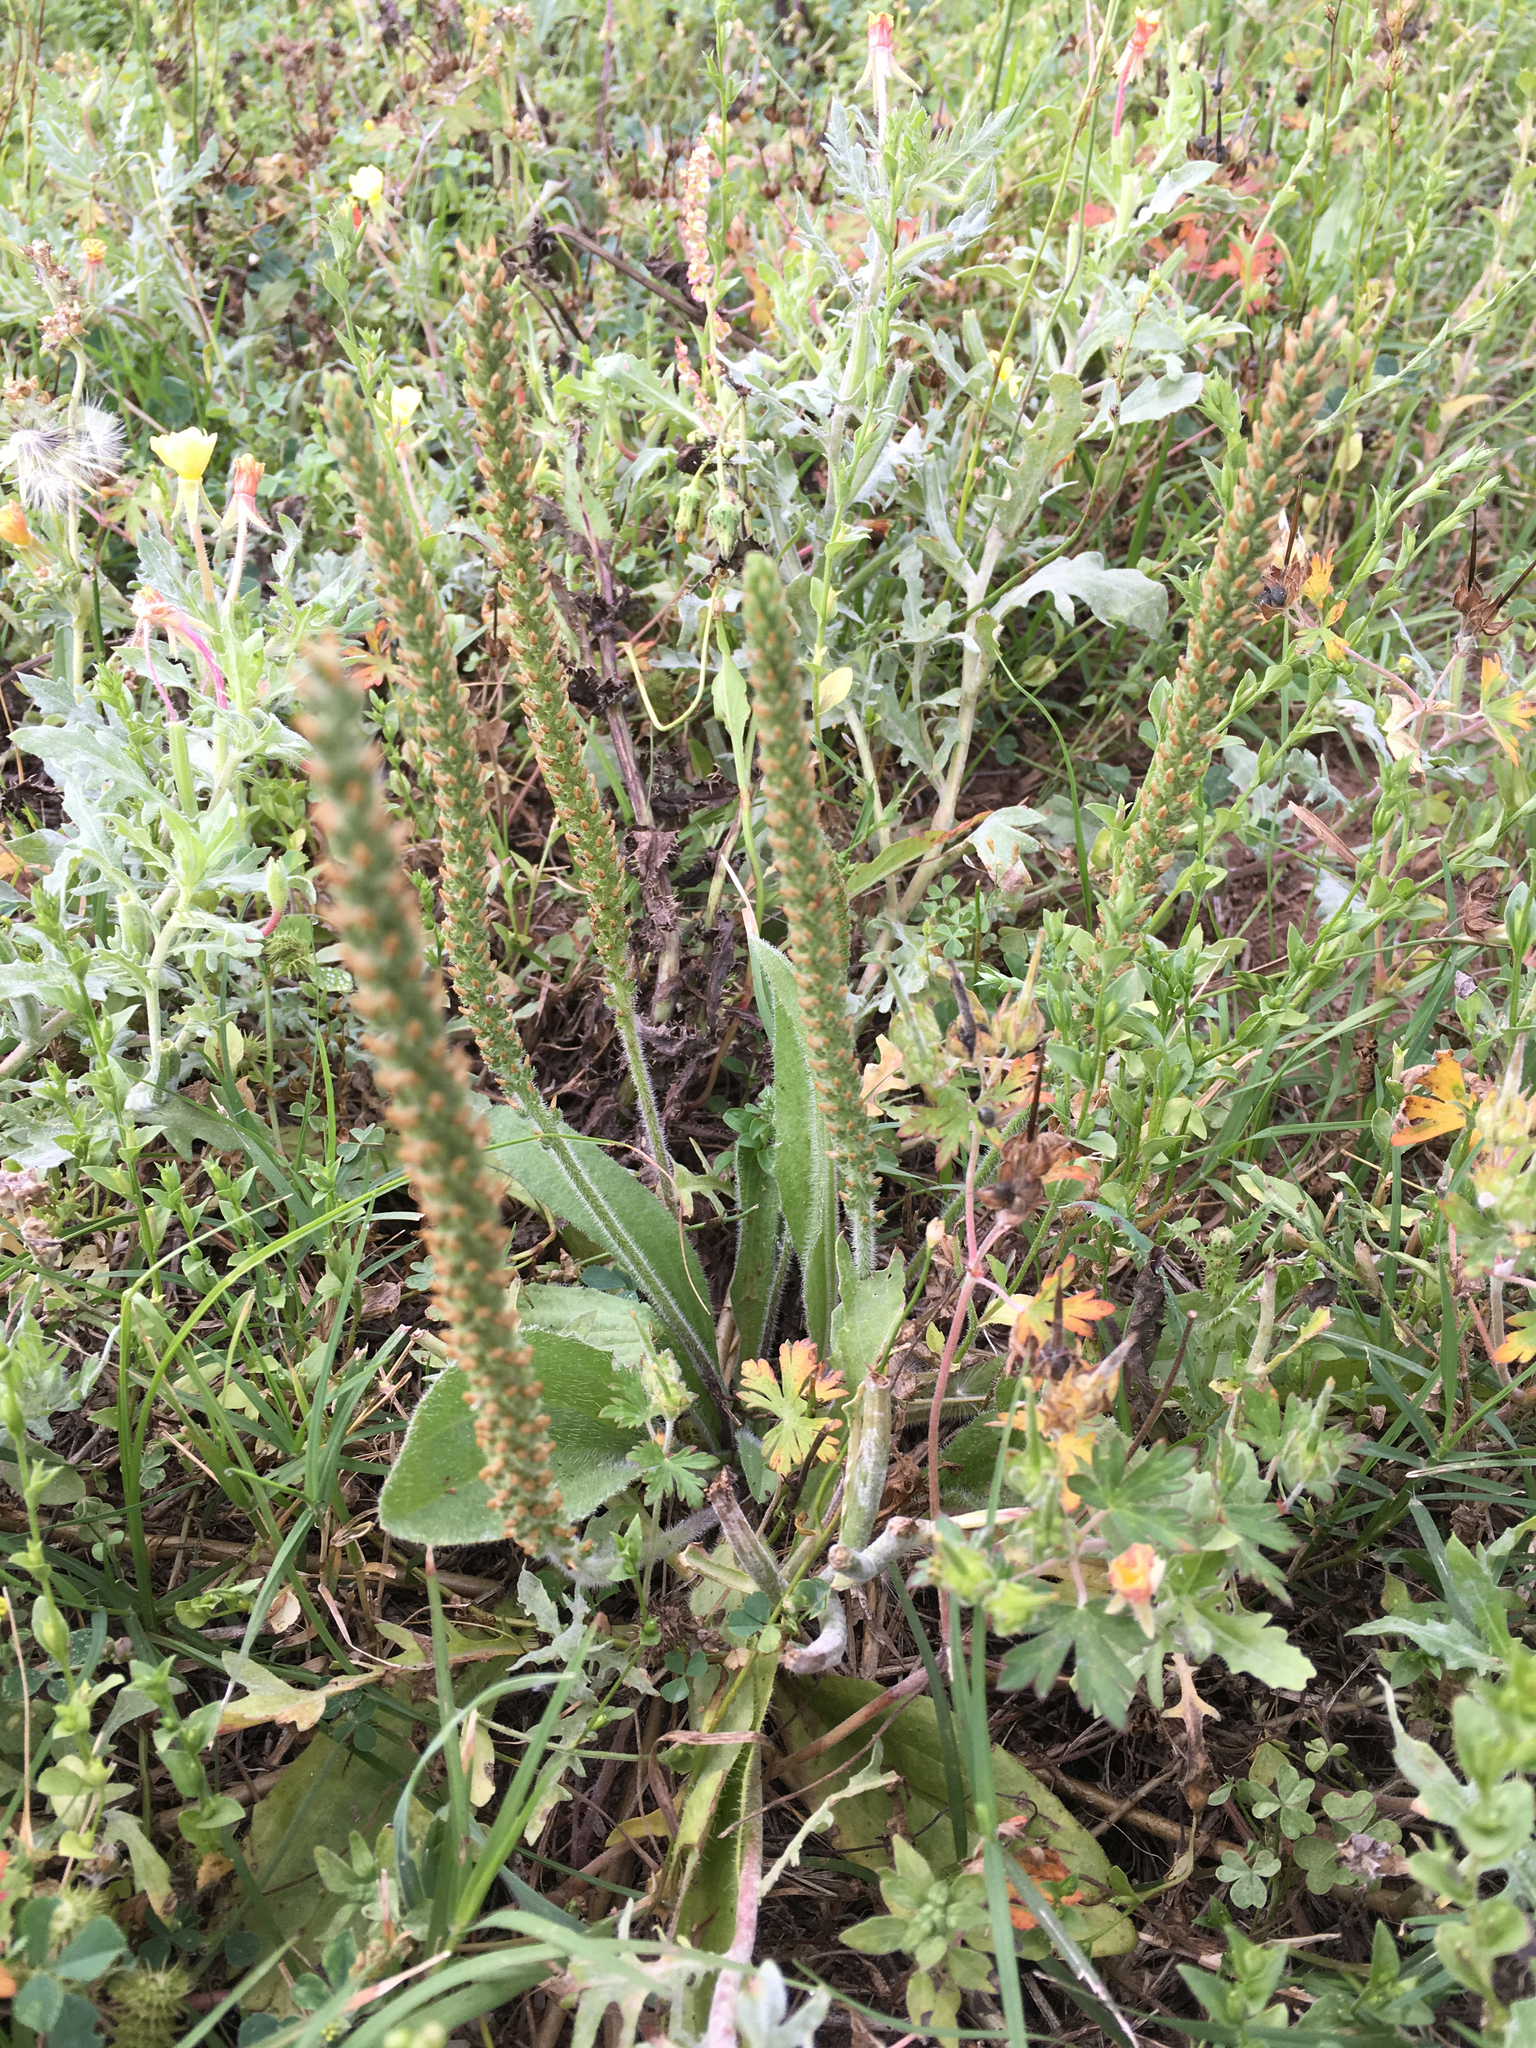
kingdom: Plantae
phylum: Tracheophyta
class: Magnoliopsida
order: Lamiales
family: Plantaginaceae
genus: Plantago
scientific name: Plantago rhodosperma
